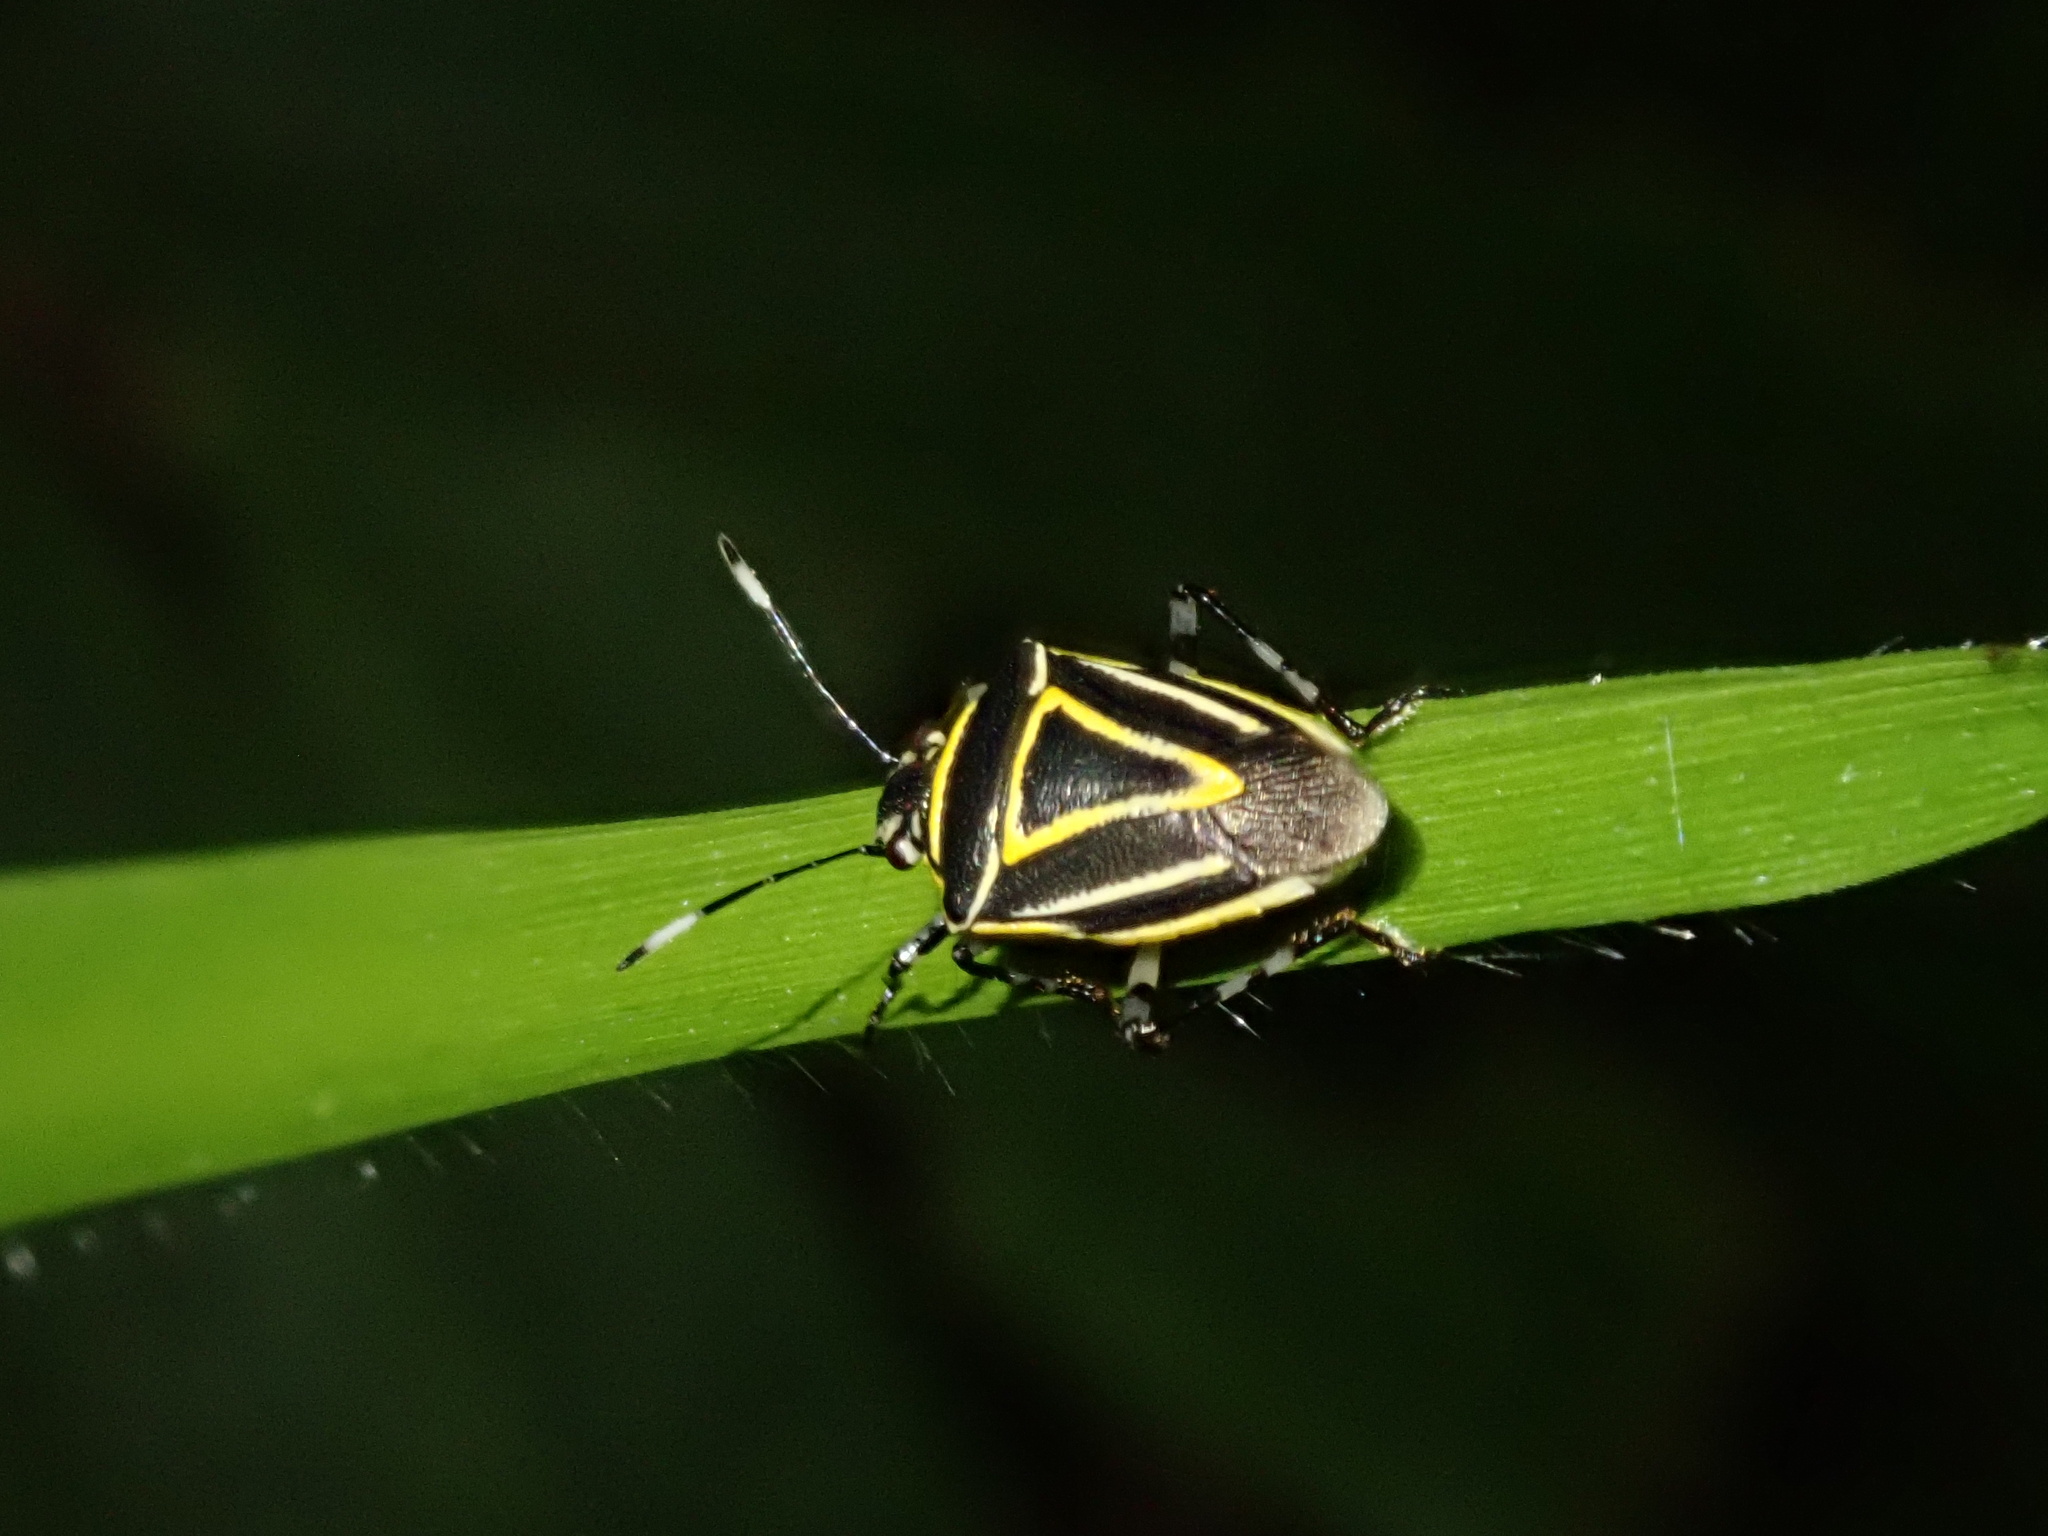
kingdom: Animalia
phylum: Arthropoda
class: Insecta
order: Hemiptera
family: Pentatomidae
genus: Mormidea
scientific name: Mormidea
